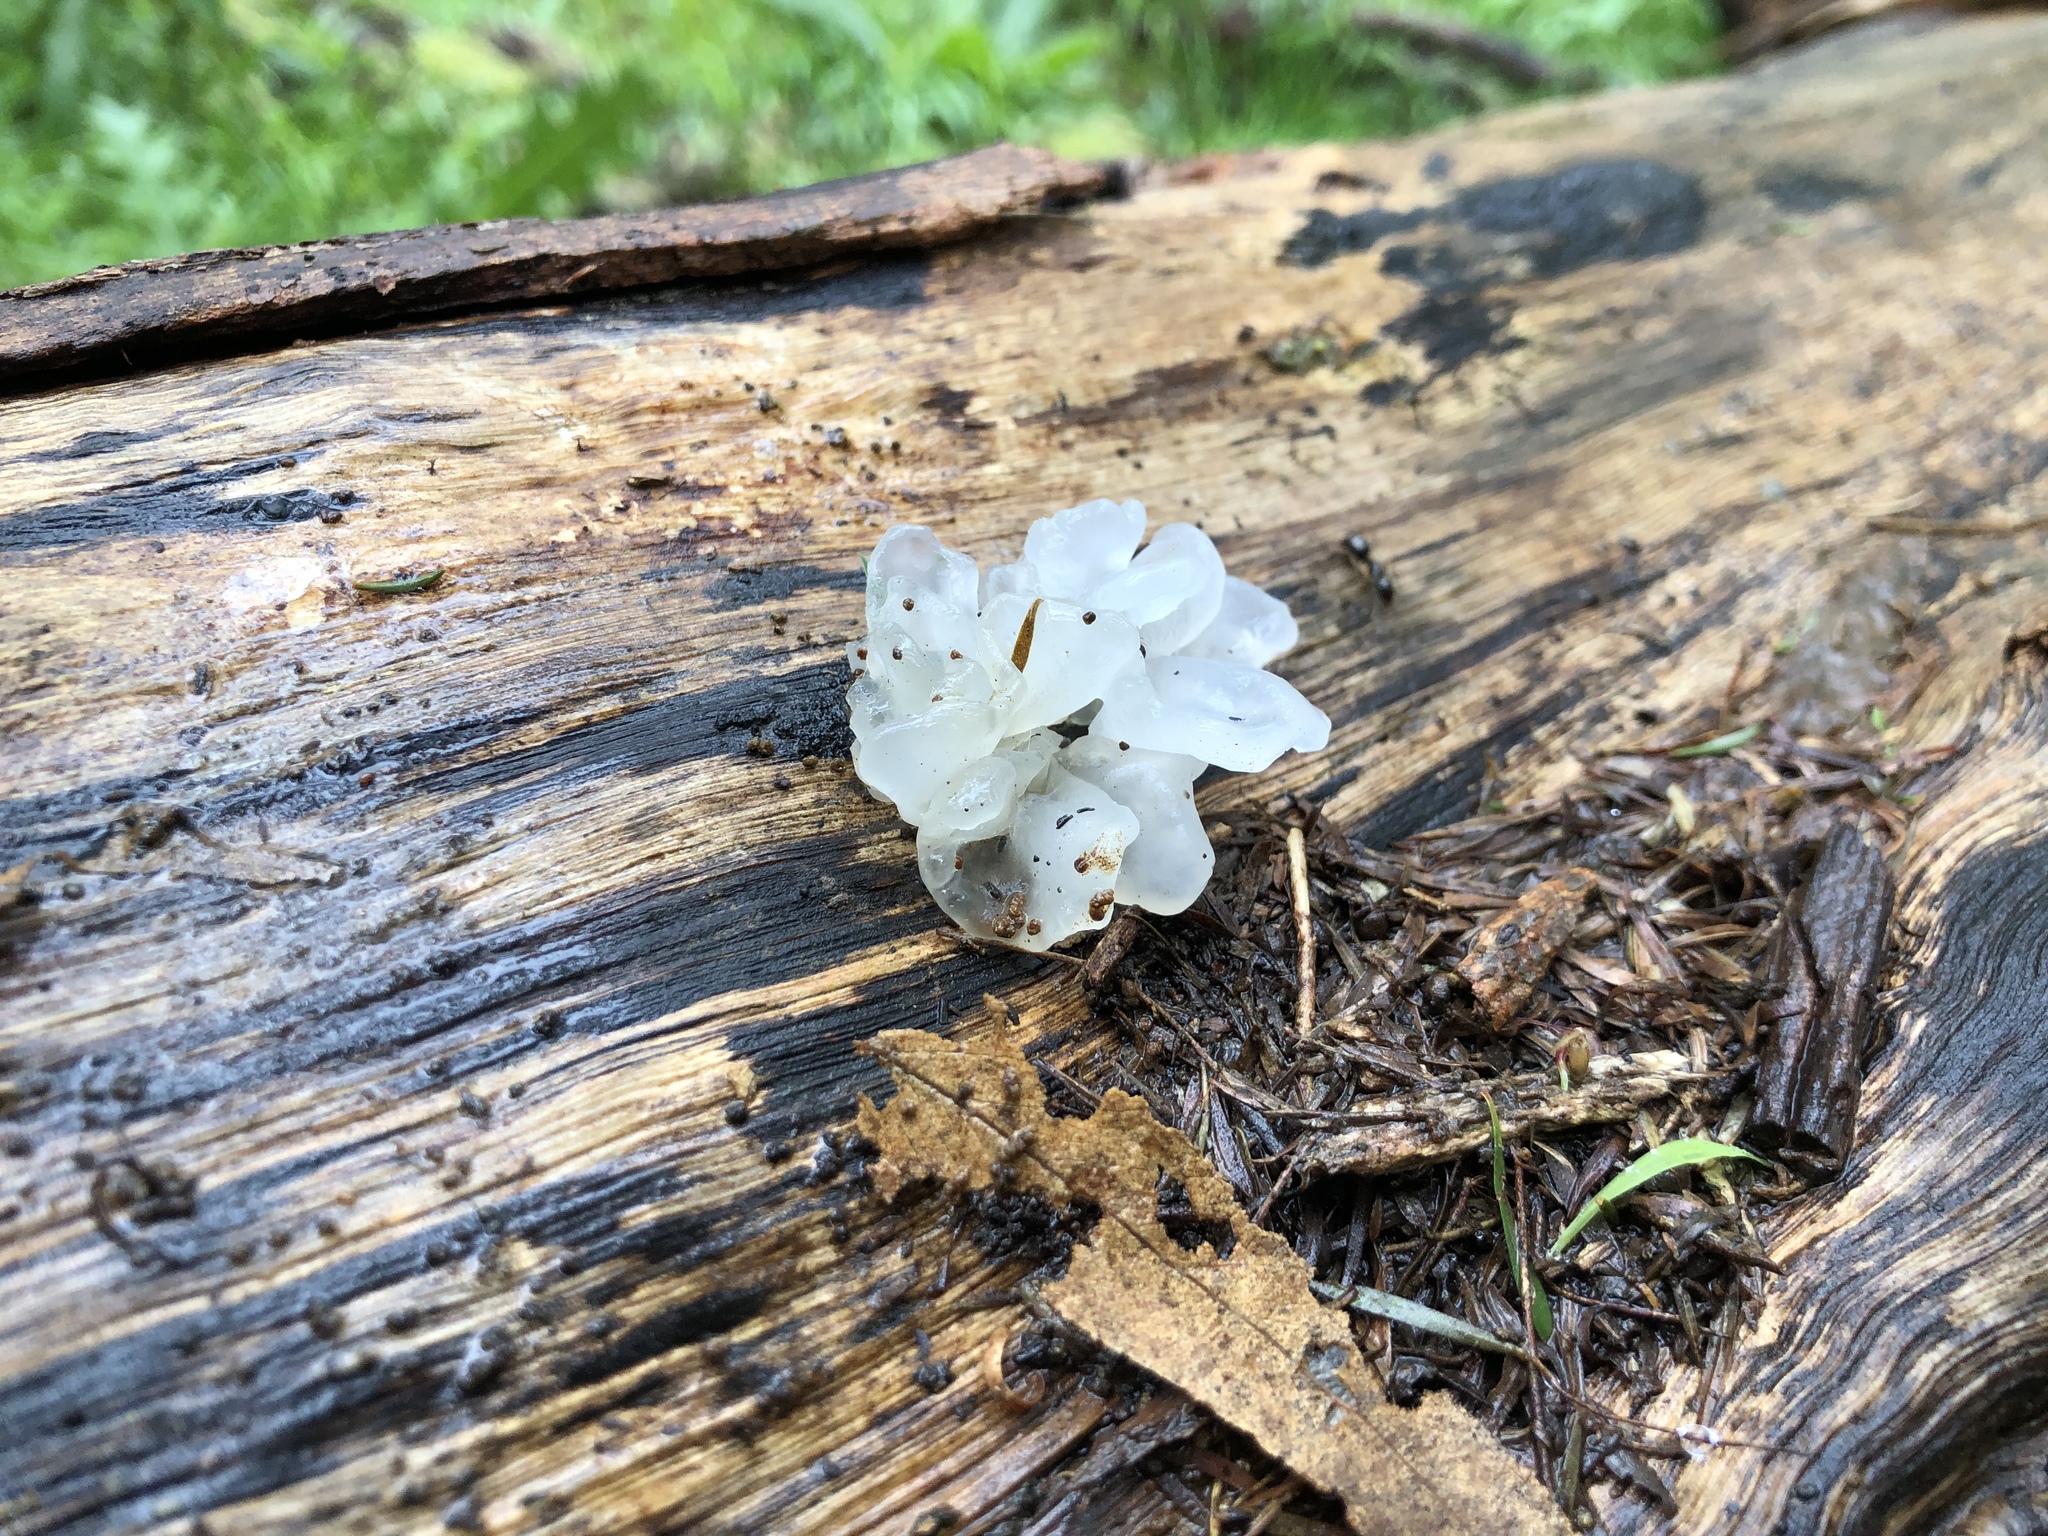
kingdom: Fungi
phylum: Basidiomycota
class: Tremellomycetes
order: Tremellales
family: Tremellaceae
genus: Tremella
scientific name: Tremella fuciformis
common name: Snow fungus
